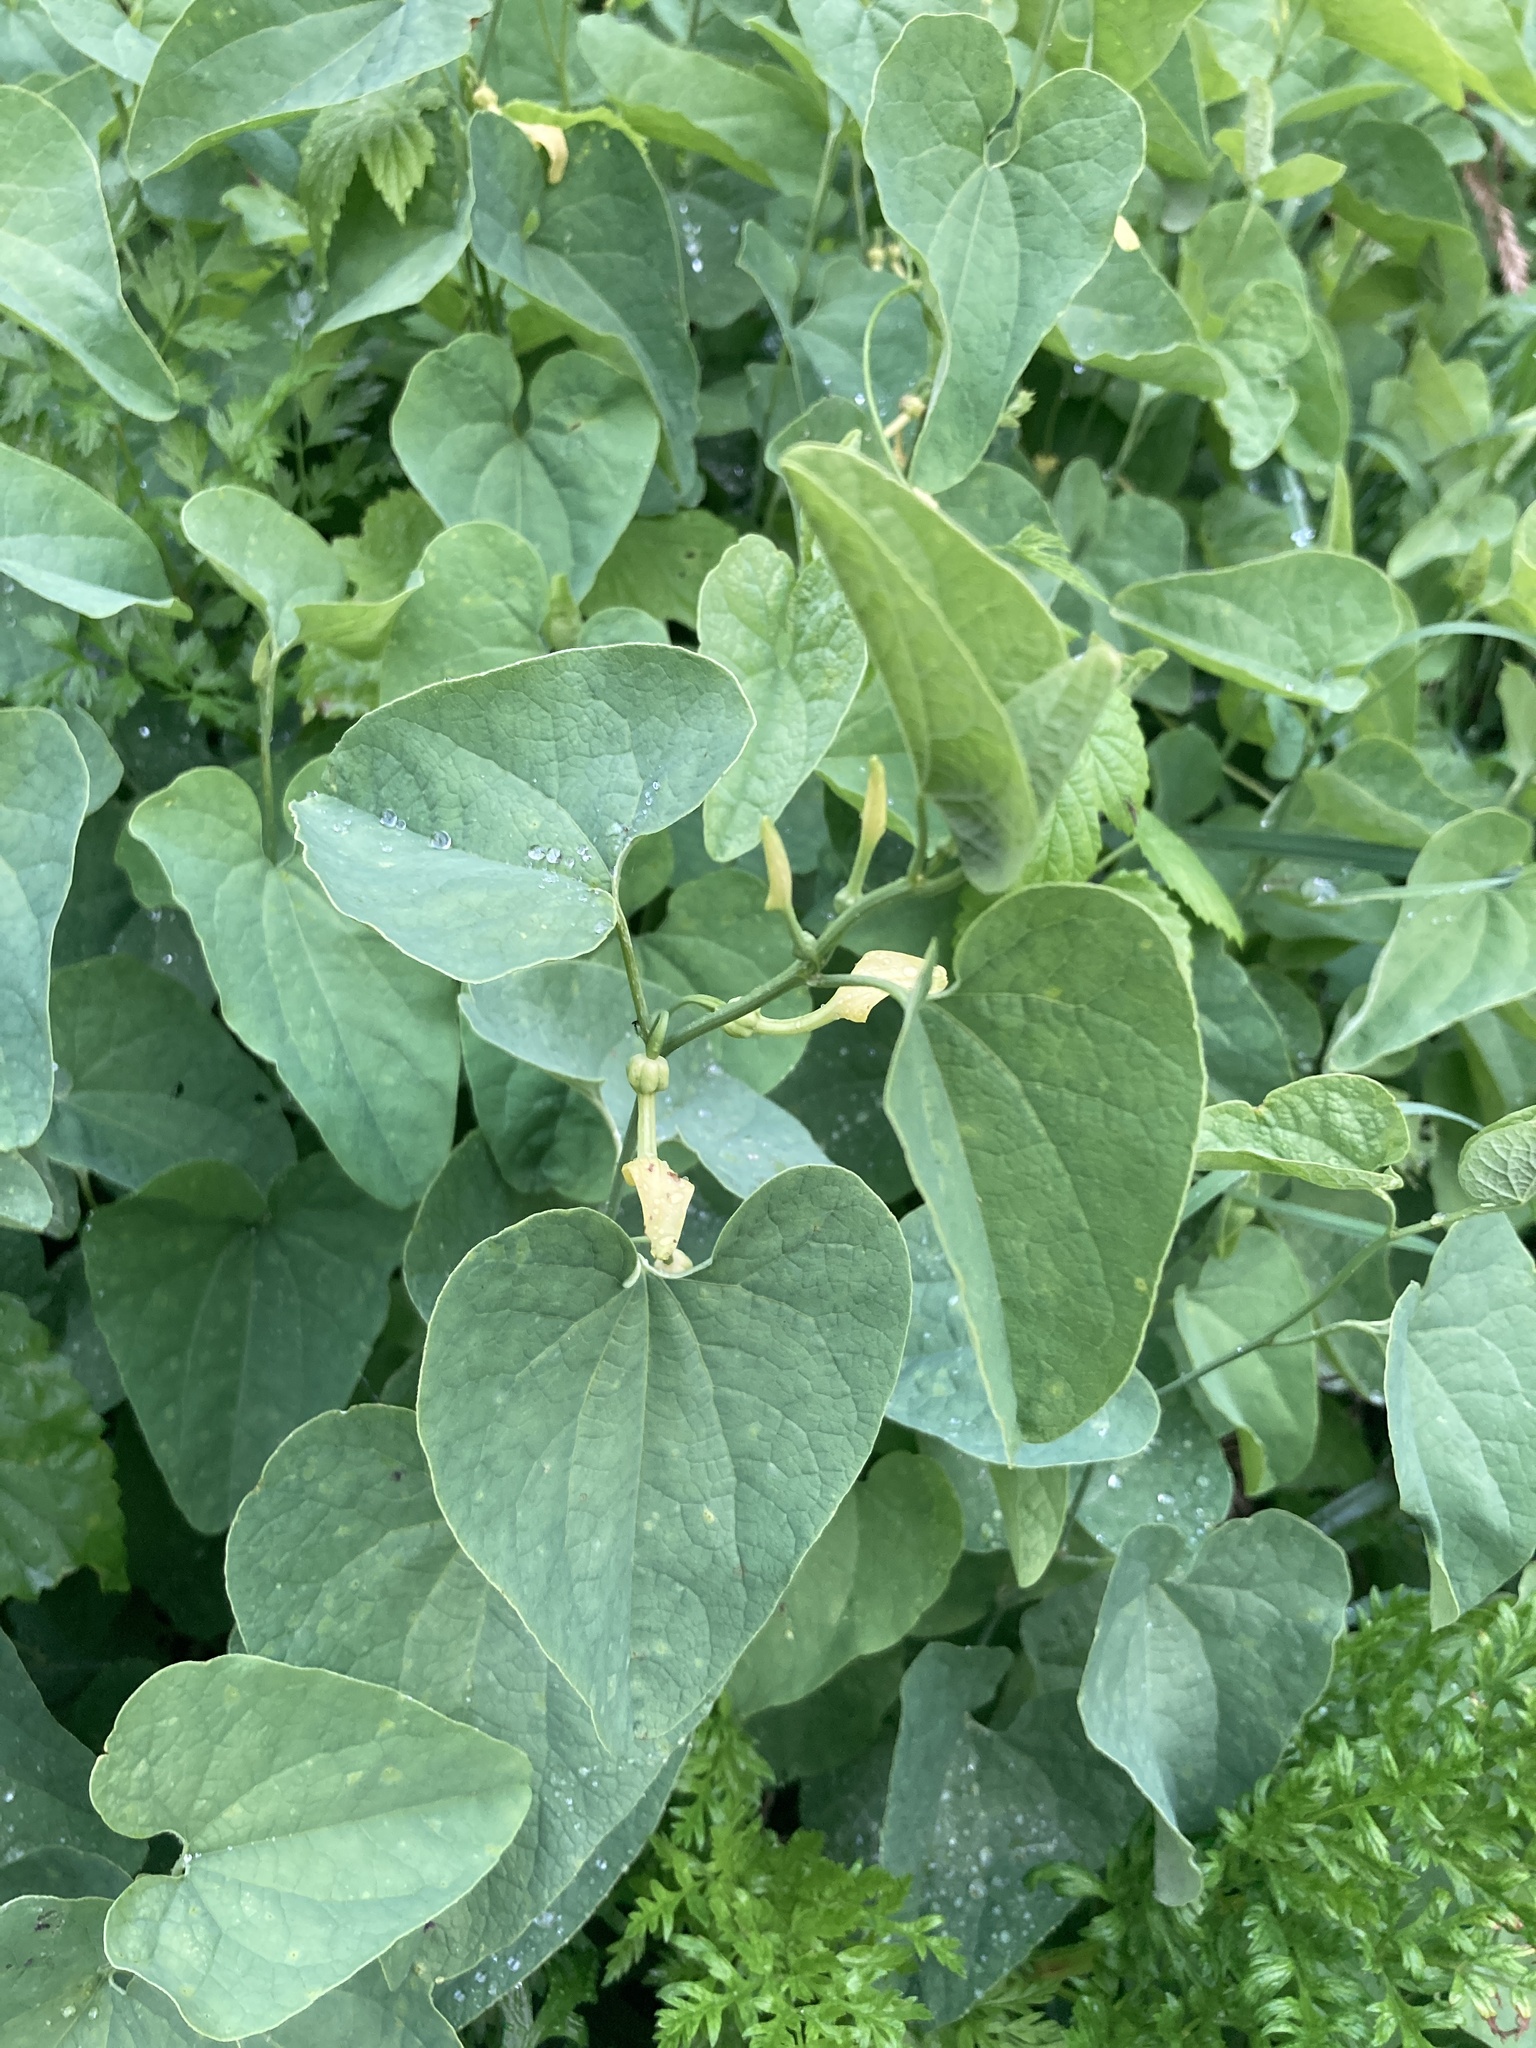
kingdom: Plantae
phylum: Tracheophyta
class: Magnoliopsida
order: Piperales
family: Aristolochiaceae
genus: Aristolochia
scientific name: Aristolochia clematitis
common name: Birthwort
